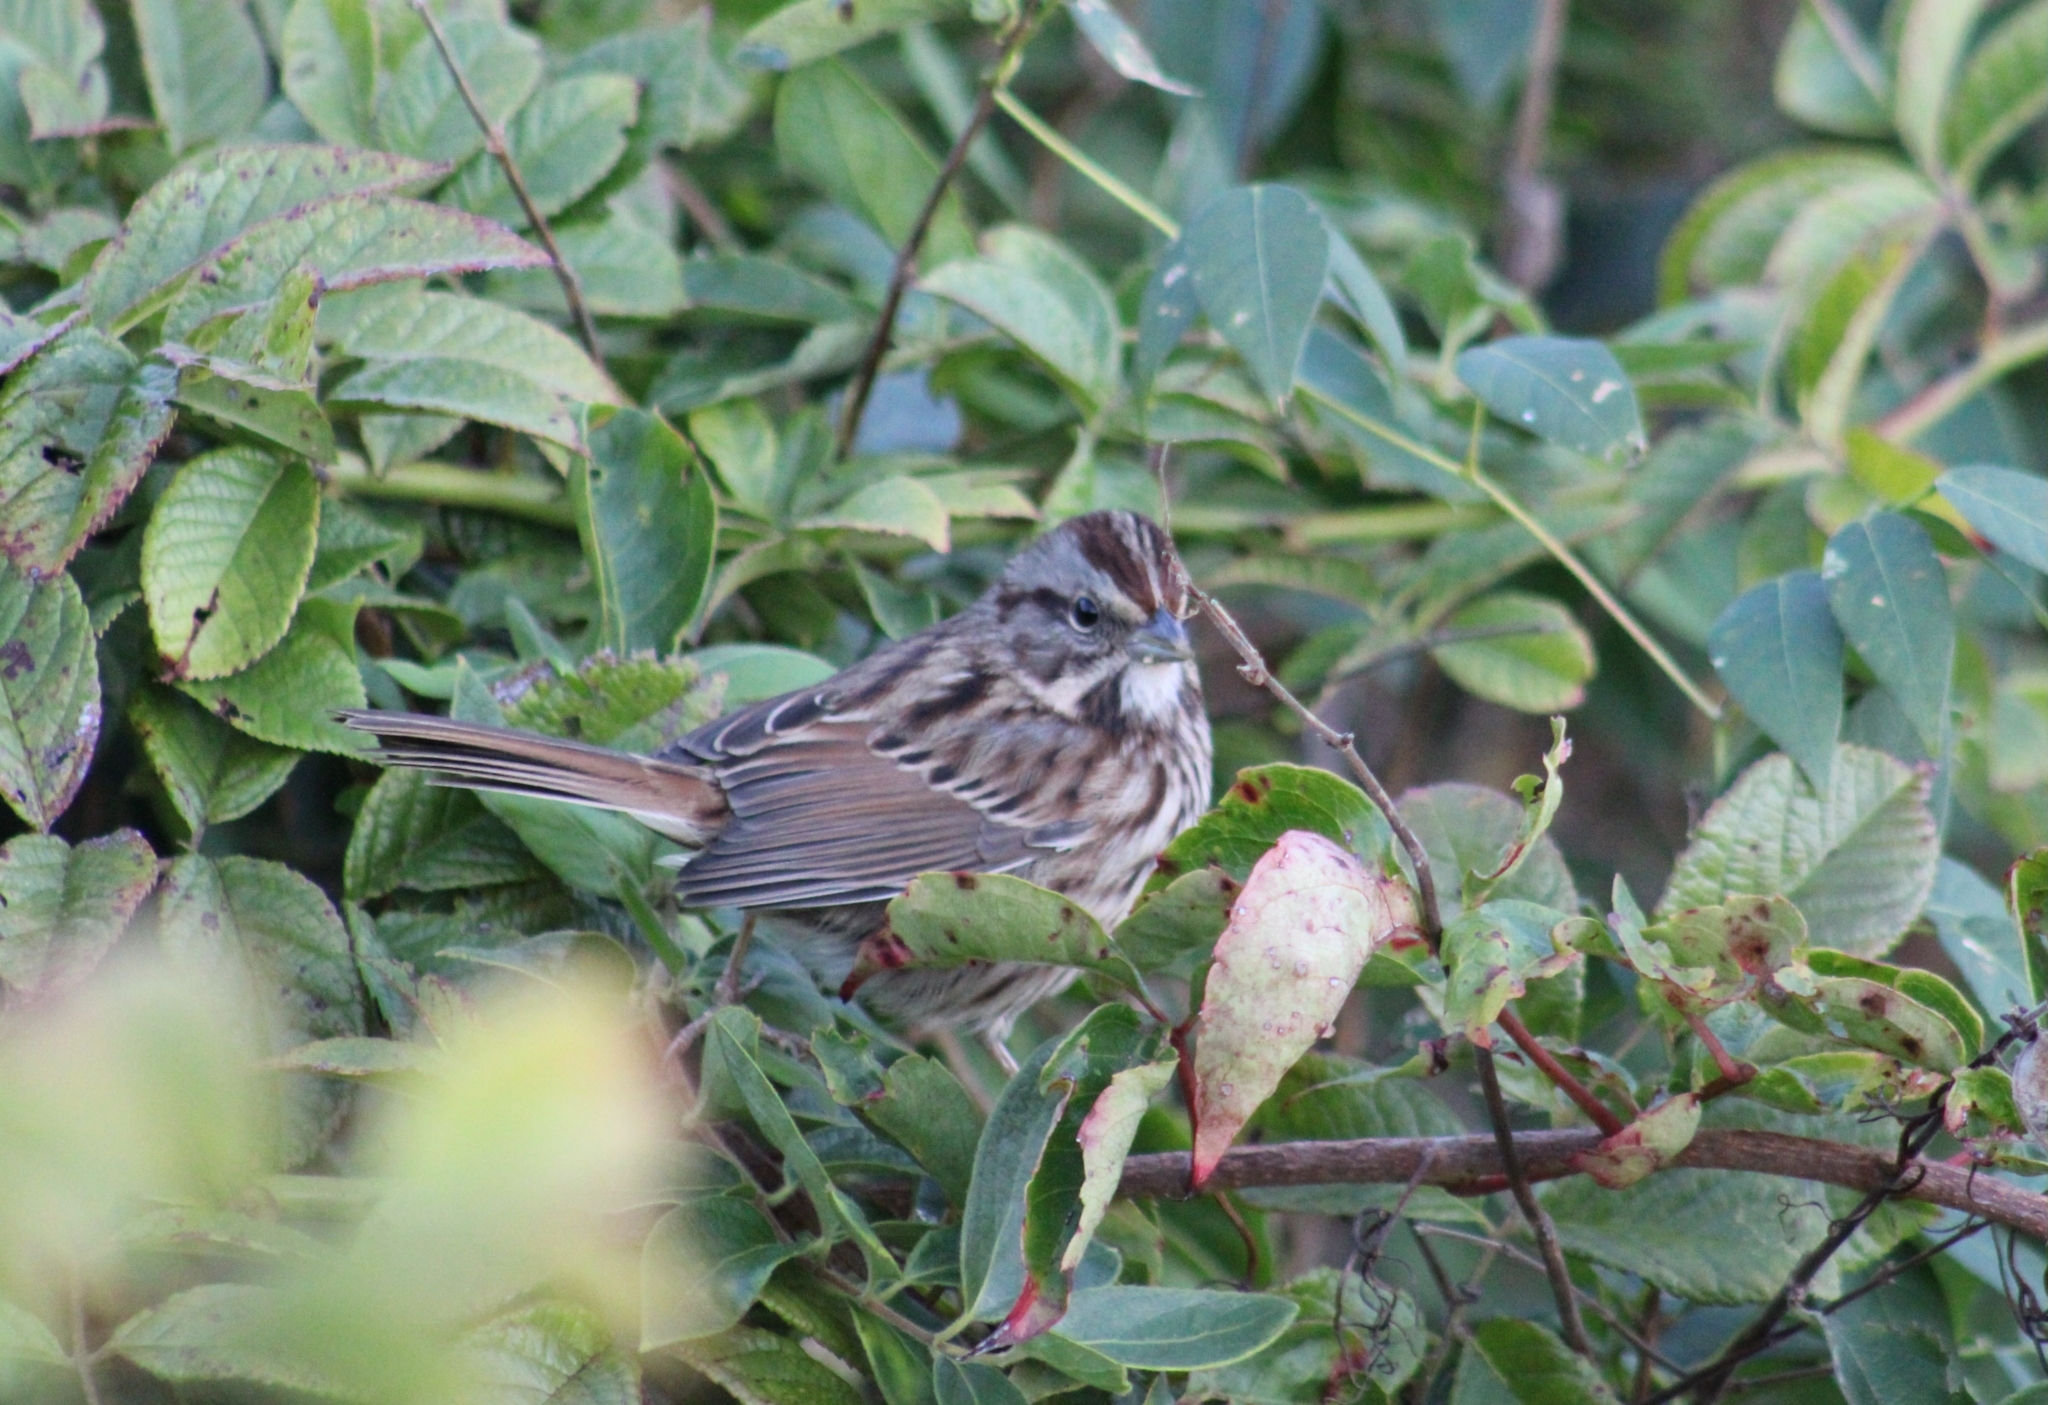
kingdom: Animalia
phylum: Chordata
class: Aves
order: Passeriformes
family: Passerellidae
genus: Melospiza
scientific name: Melospiza melodia
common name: Song sparrow
